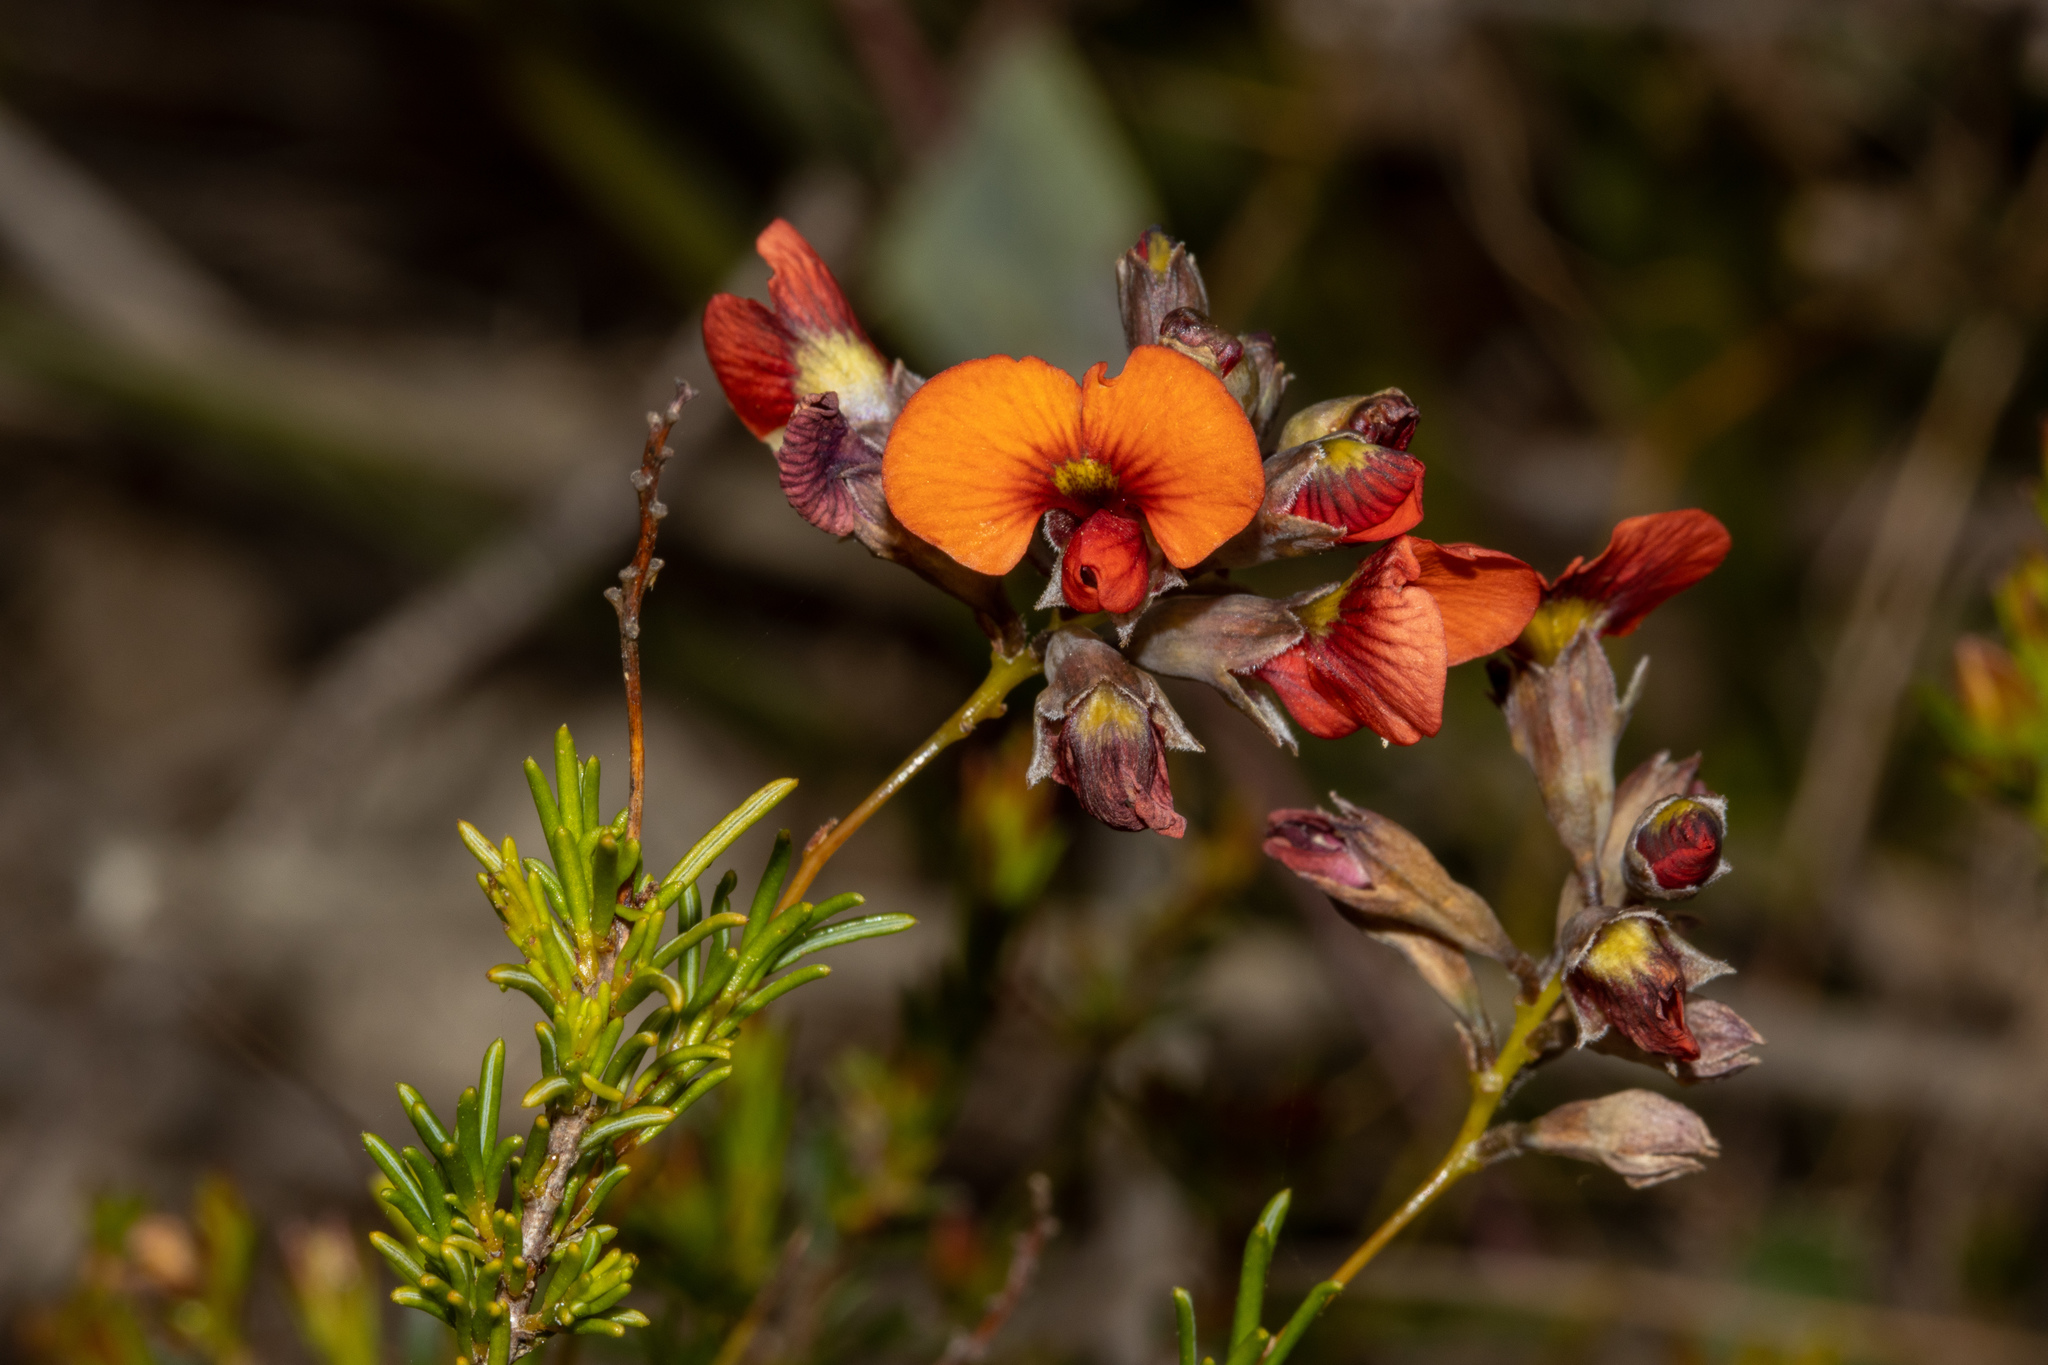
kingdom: Plantae
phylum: Tracheophyta
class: Magnoliopsida
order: Fabales
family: Fabaceae
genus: Dillwynia
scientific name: Dillwynia hispida
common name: Red parrot-pea
